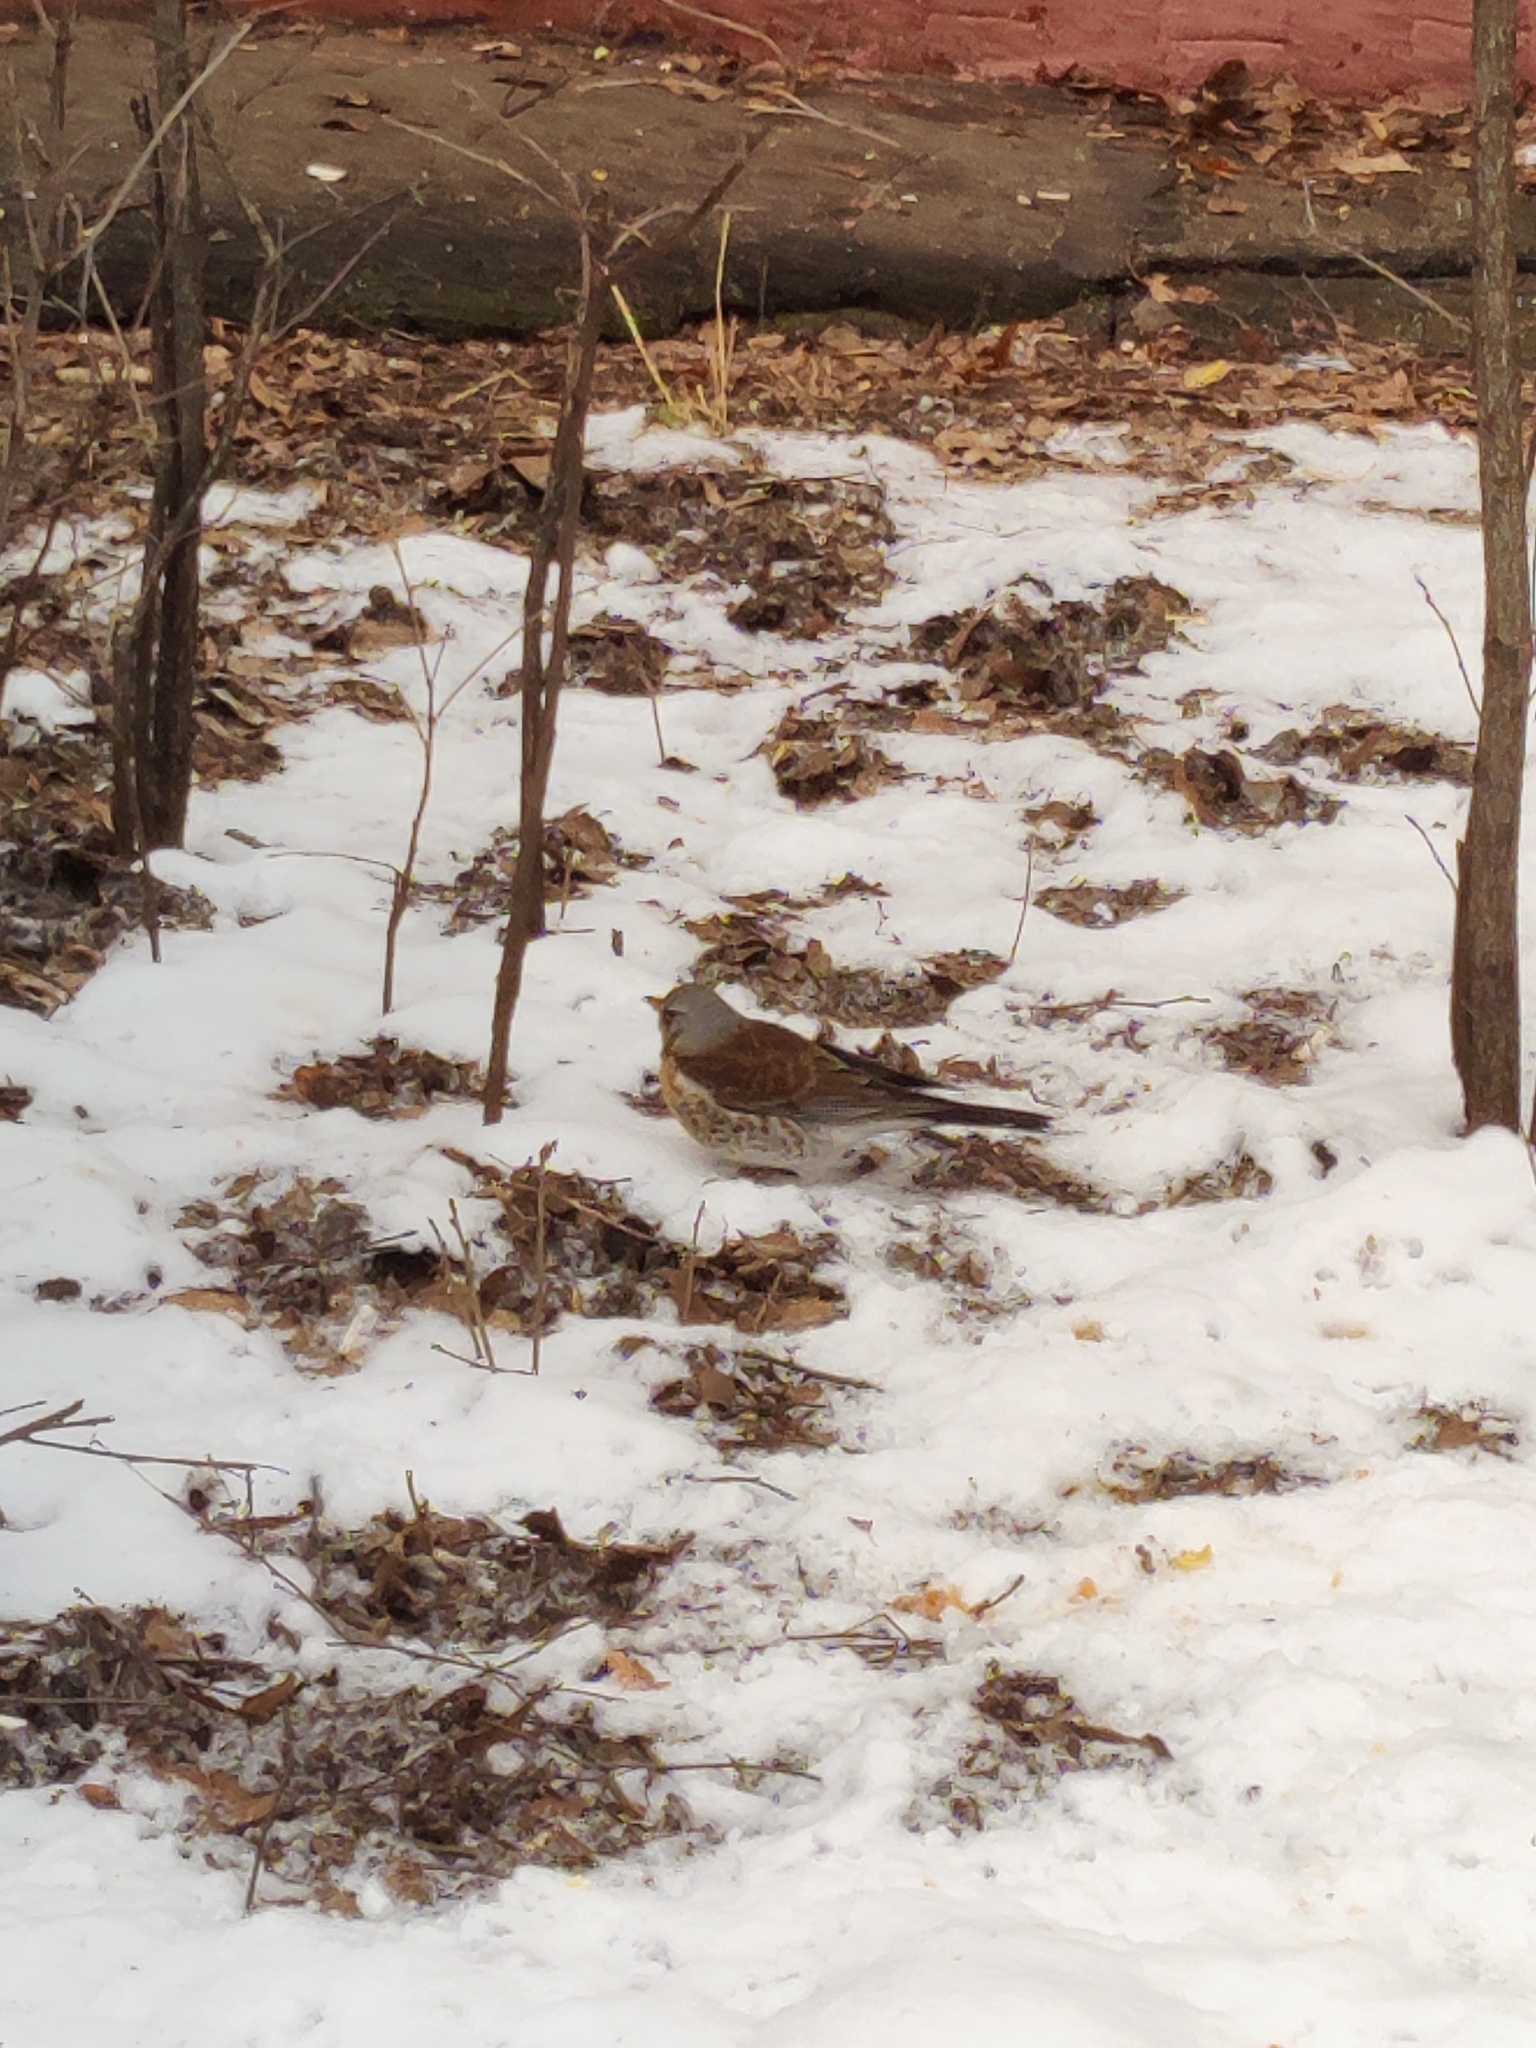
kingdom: Animalia
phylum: Chordata
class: Aves
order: Passeriformes
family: Turdidae
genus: Turdus
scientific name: Turdus pilaris
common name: Fieldfare
